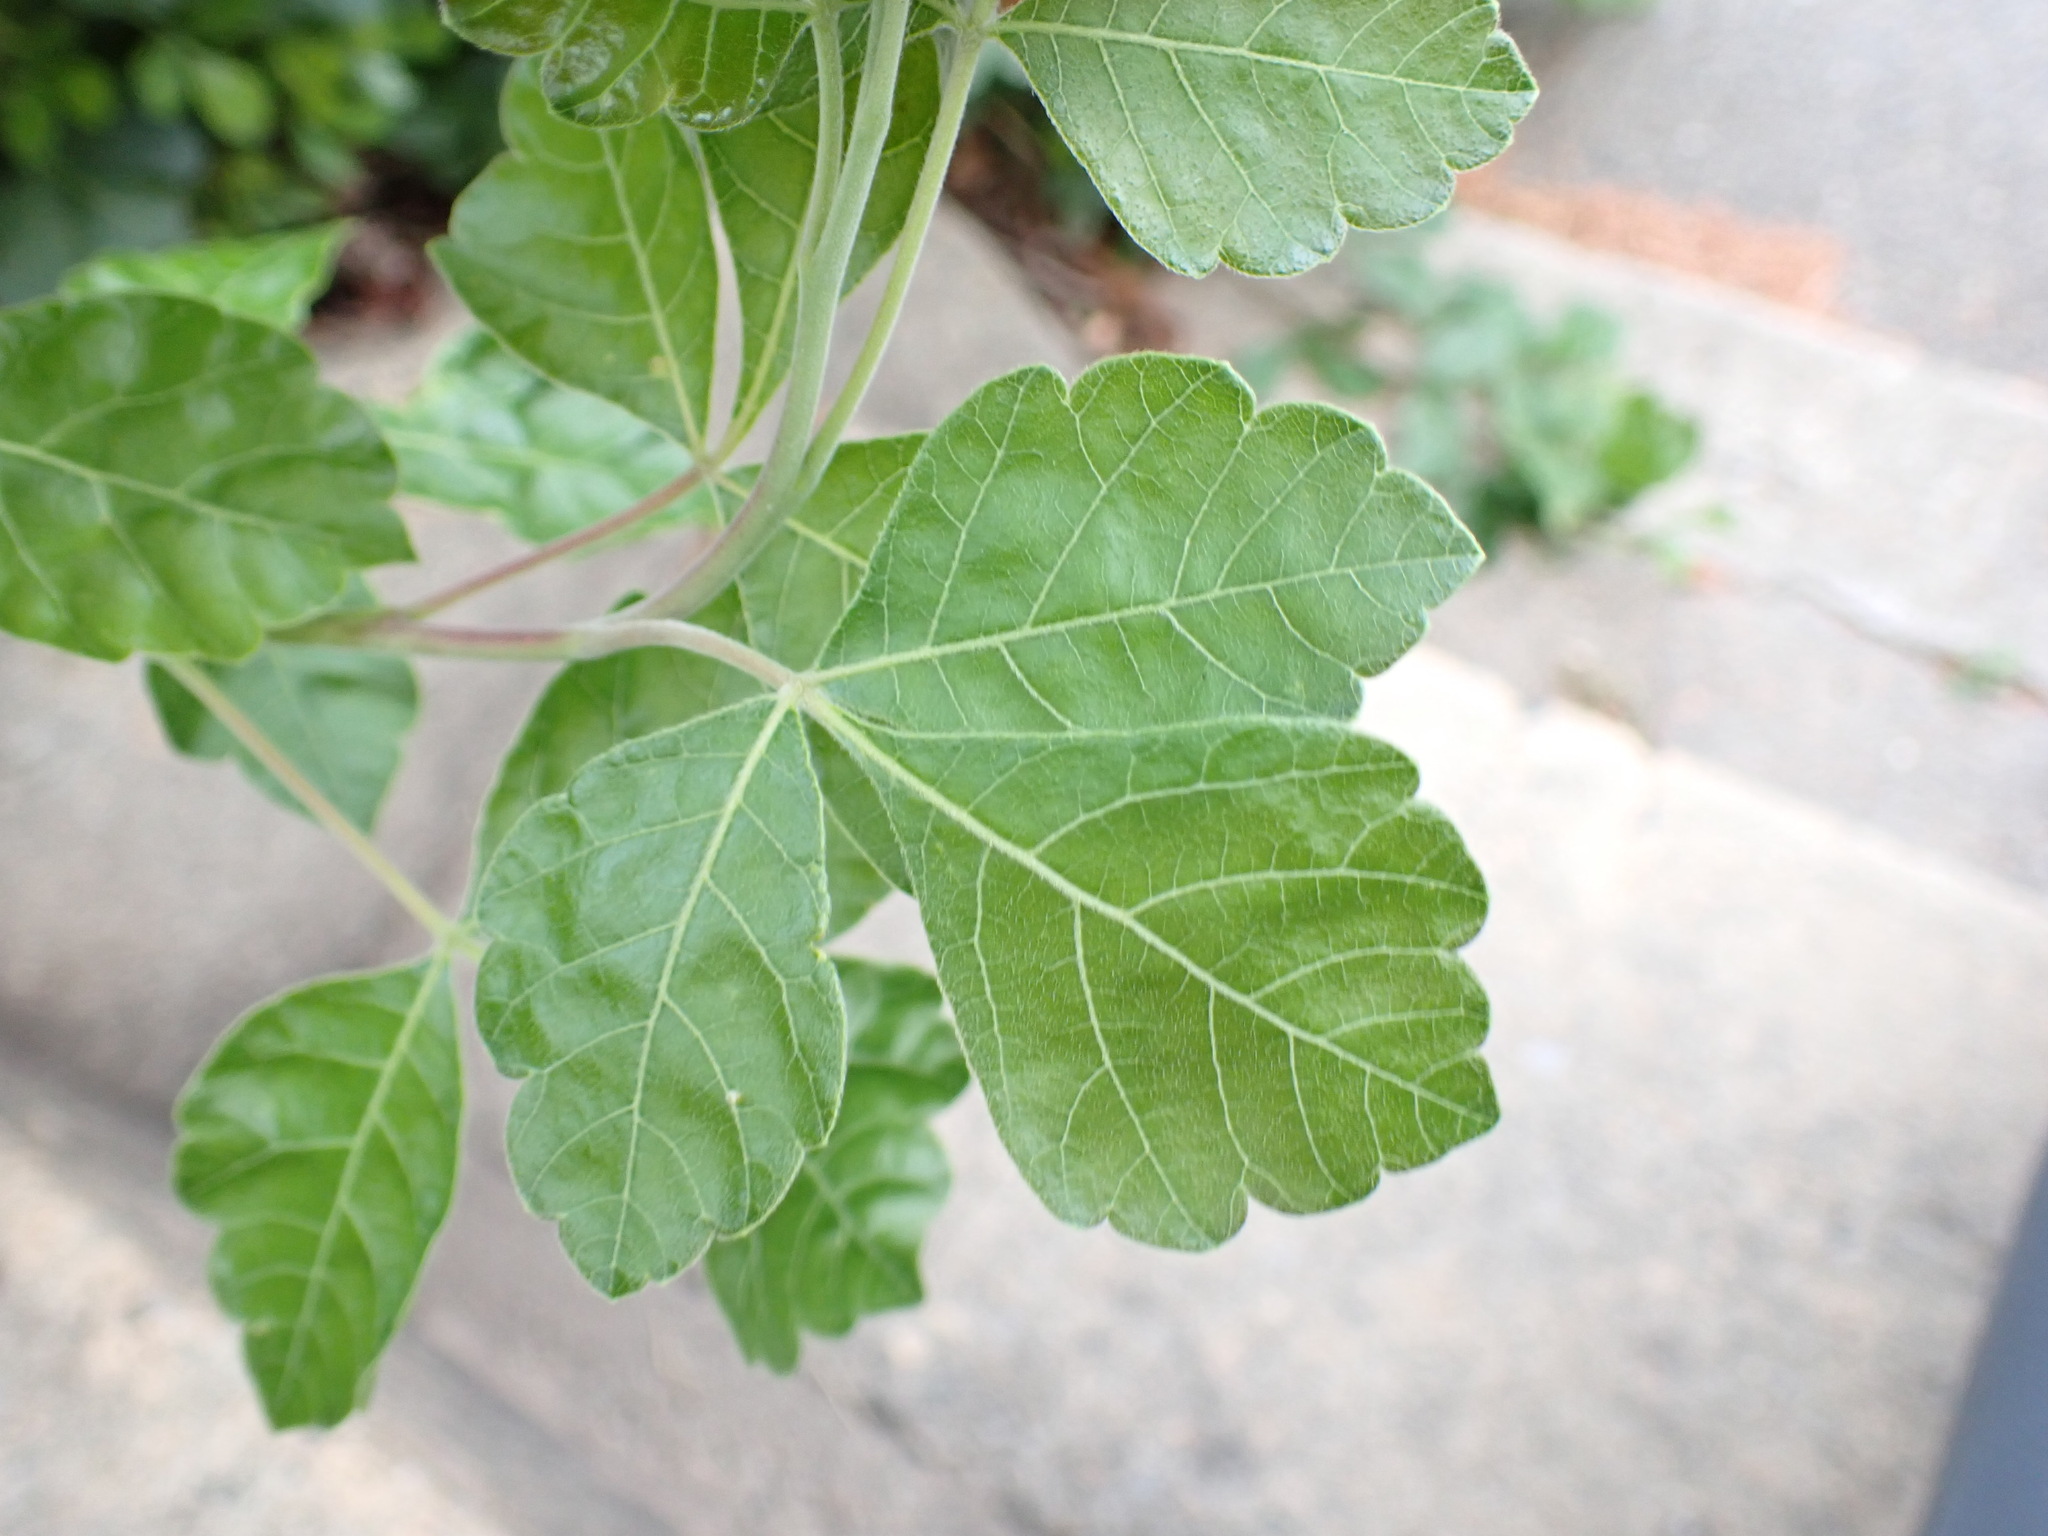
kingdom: Plantae
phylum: Tracheophyta
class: Magnoliopsida
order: Sapindales
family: Anacardiaceae
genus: Rhus
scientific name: Rhus aromatica
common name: Aromatic sumac
